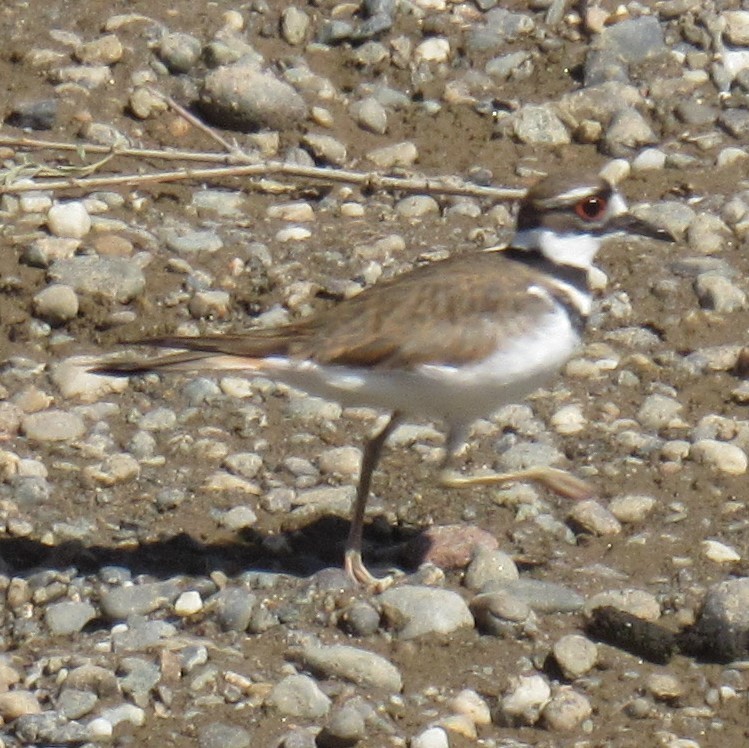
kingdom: Animalia
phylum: Chordata
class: Aves
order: Charadriiformes
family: Charadriidae
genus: Charadrius
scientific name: Charadrius vociferus
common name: Killdeer
